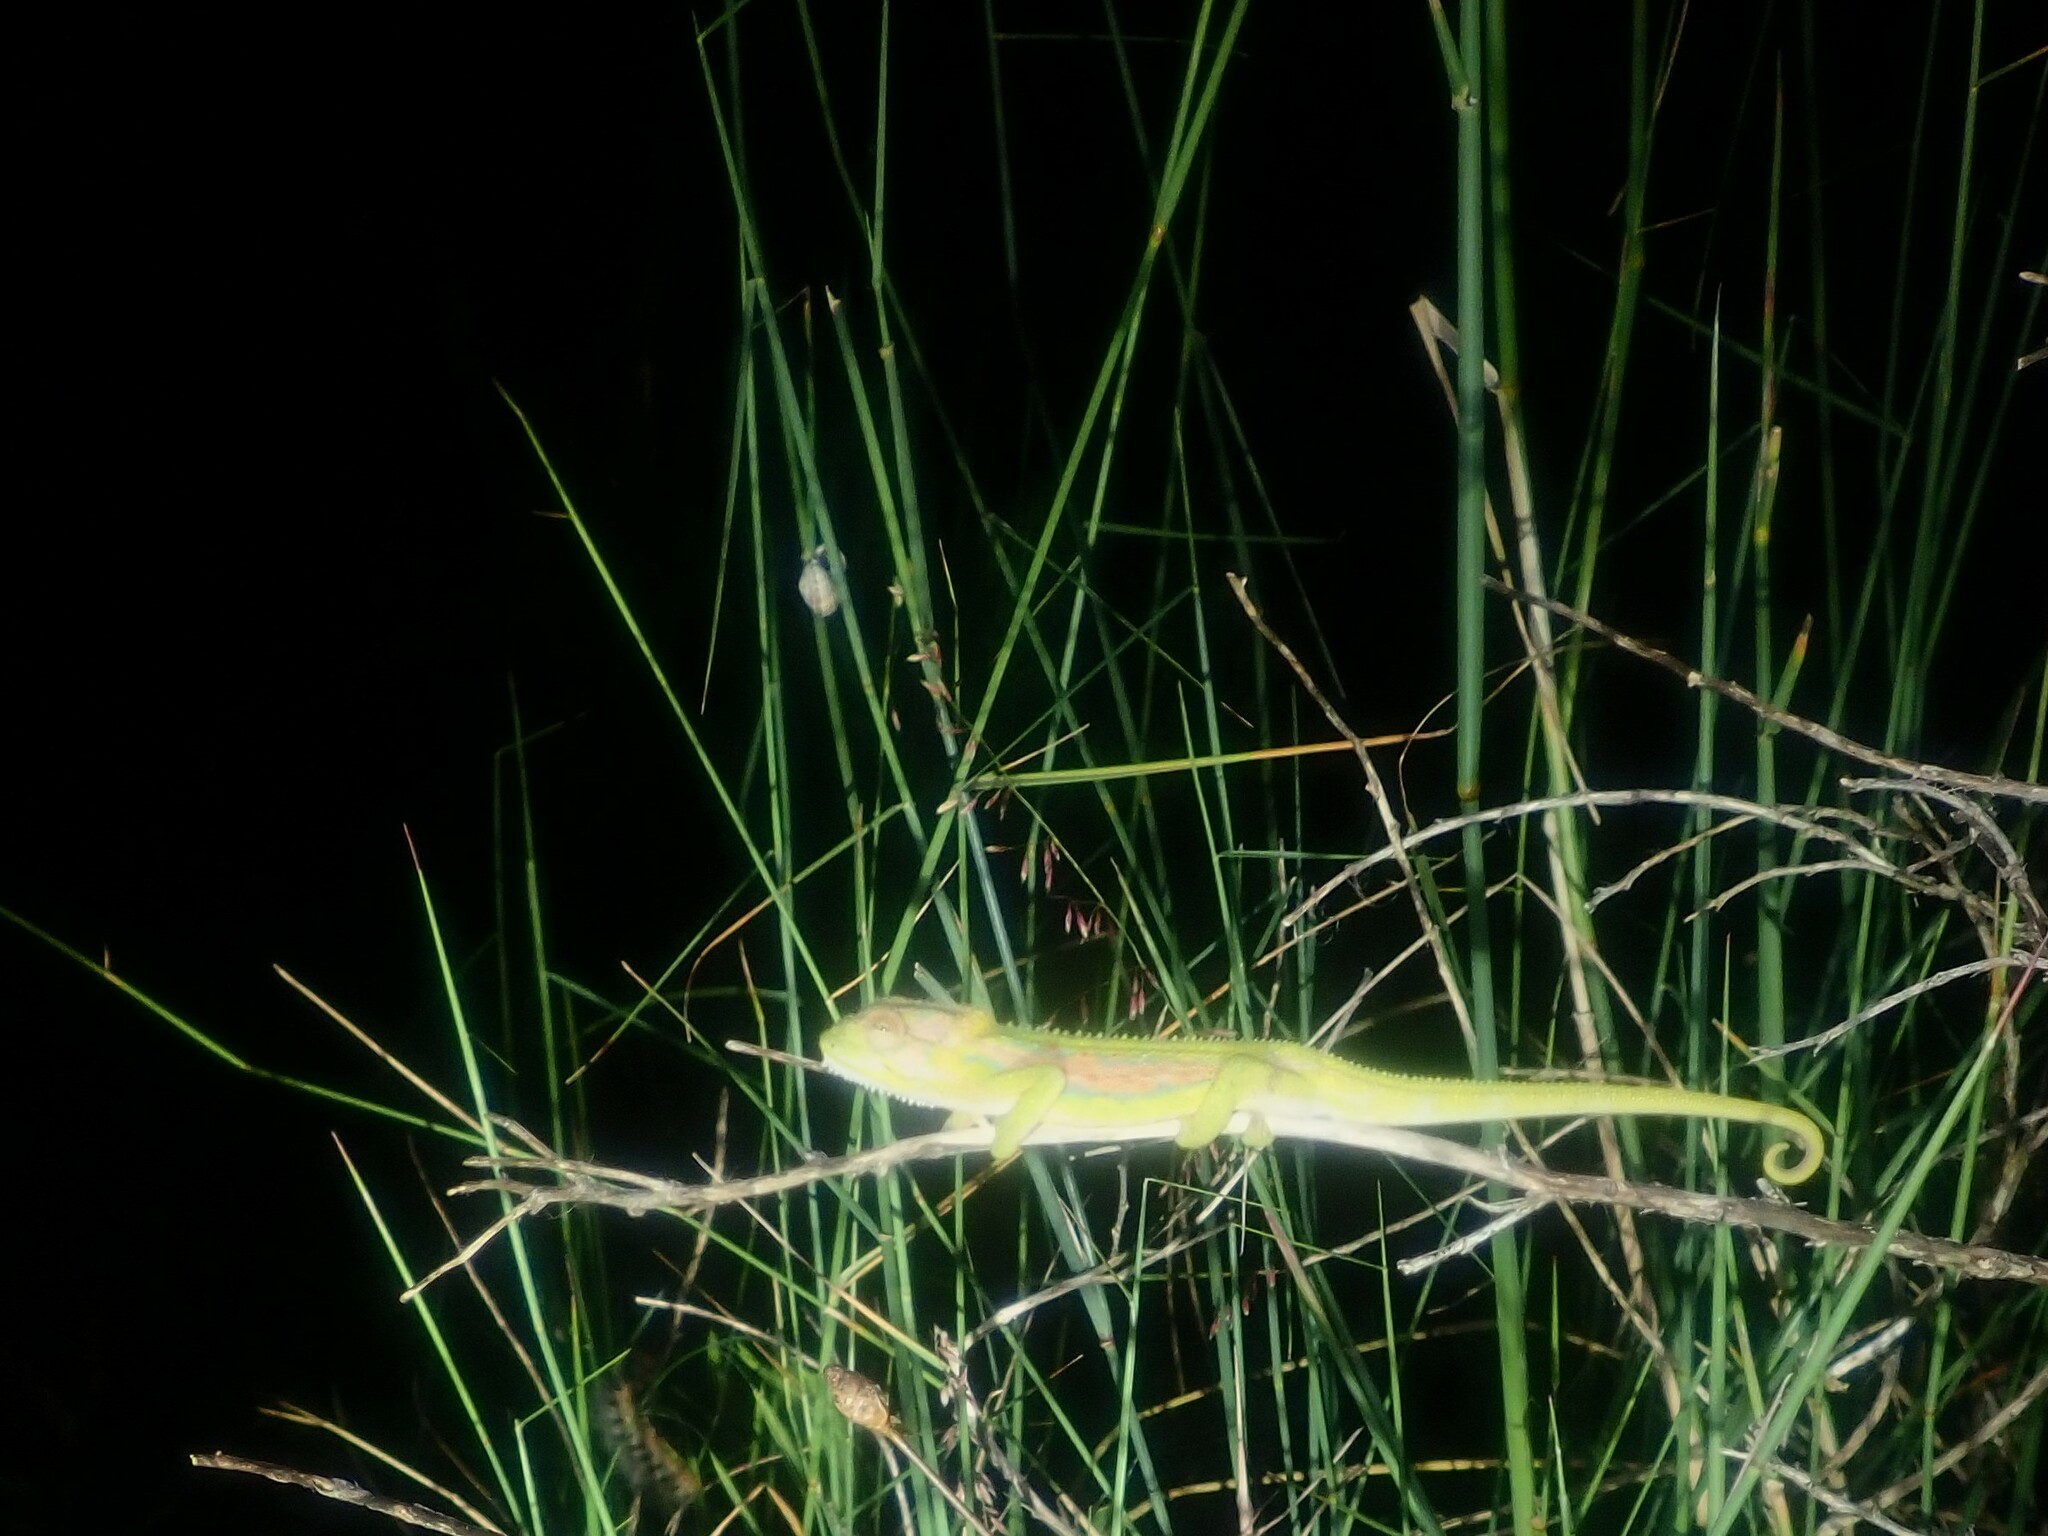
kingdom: Animalia
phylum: Chordata
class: Squamata
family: Chamaeleonidae
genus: Bradypodion
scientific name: Bradypodion pumilum
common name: Cape dwarf chameleon
